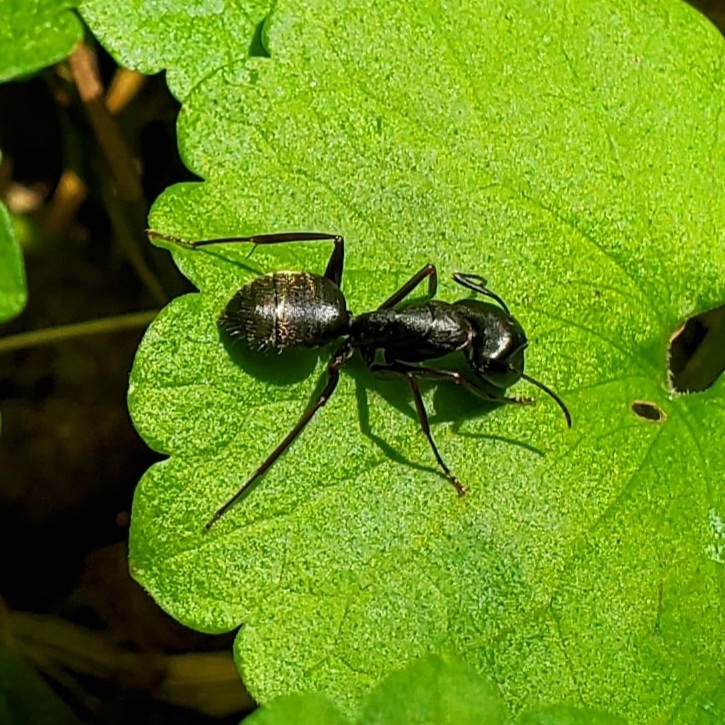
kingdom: Animalia
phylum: Arthropoda
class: Insecta
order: Hymenoptera
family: Formicidae
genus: Camponotus
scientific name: Camponotus pennsylvanicus
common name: Black carpenter ant
